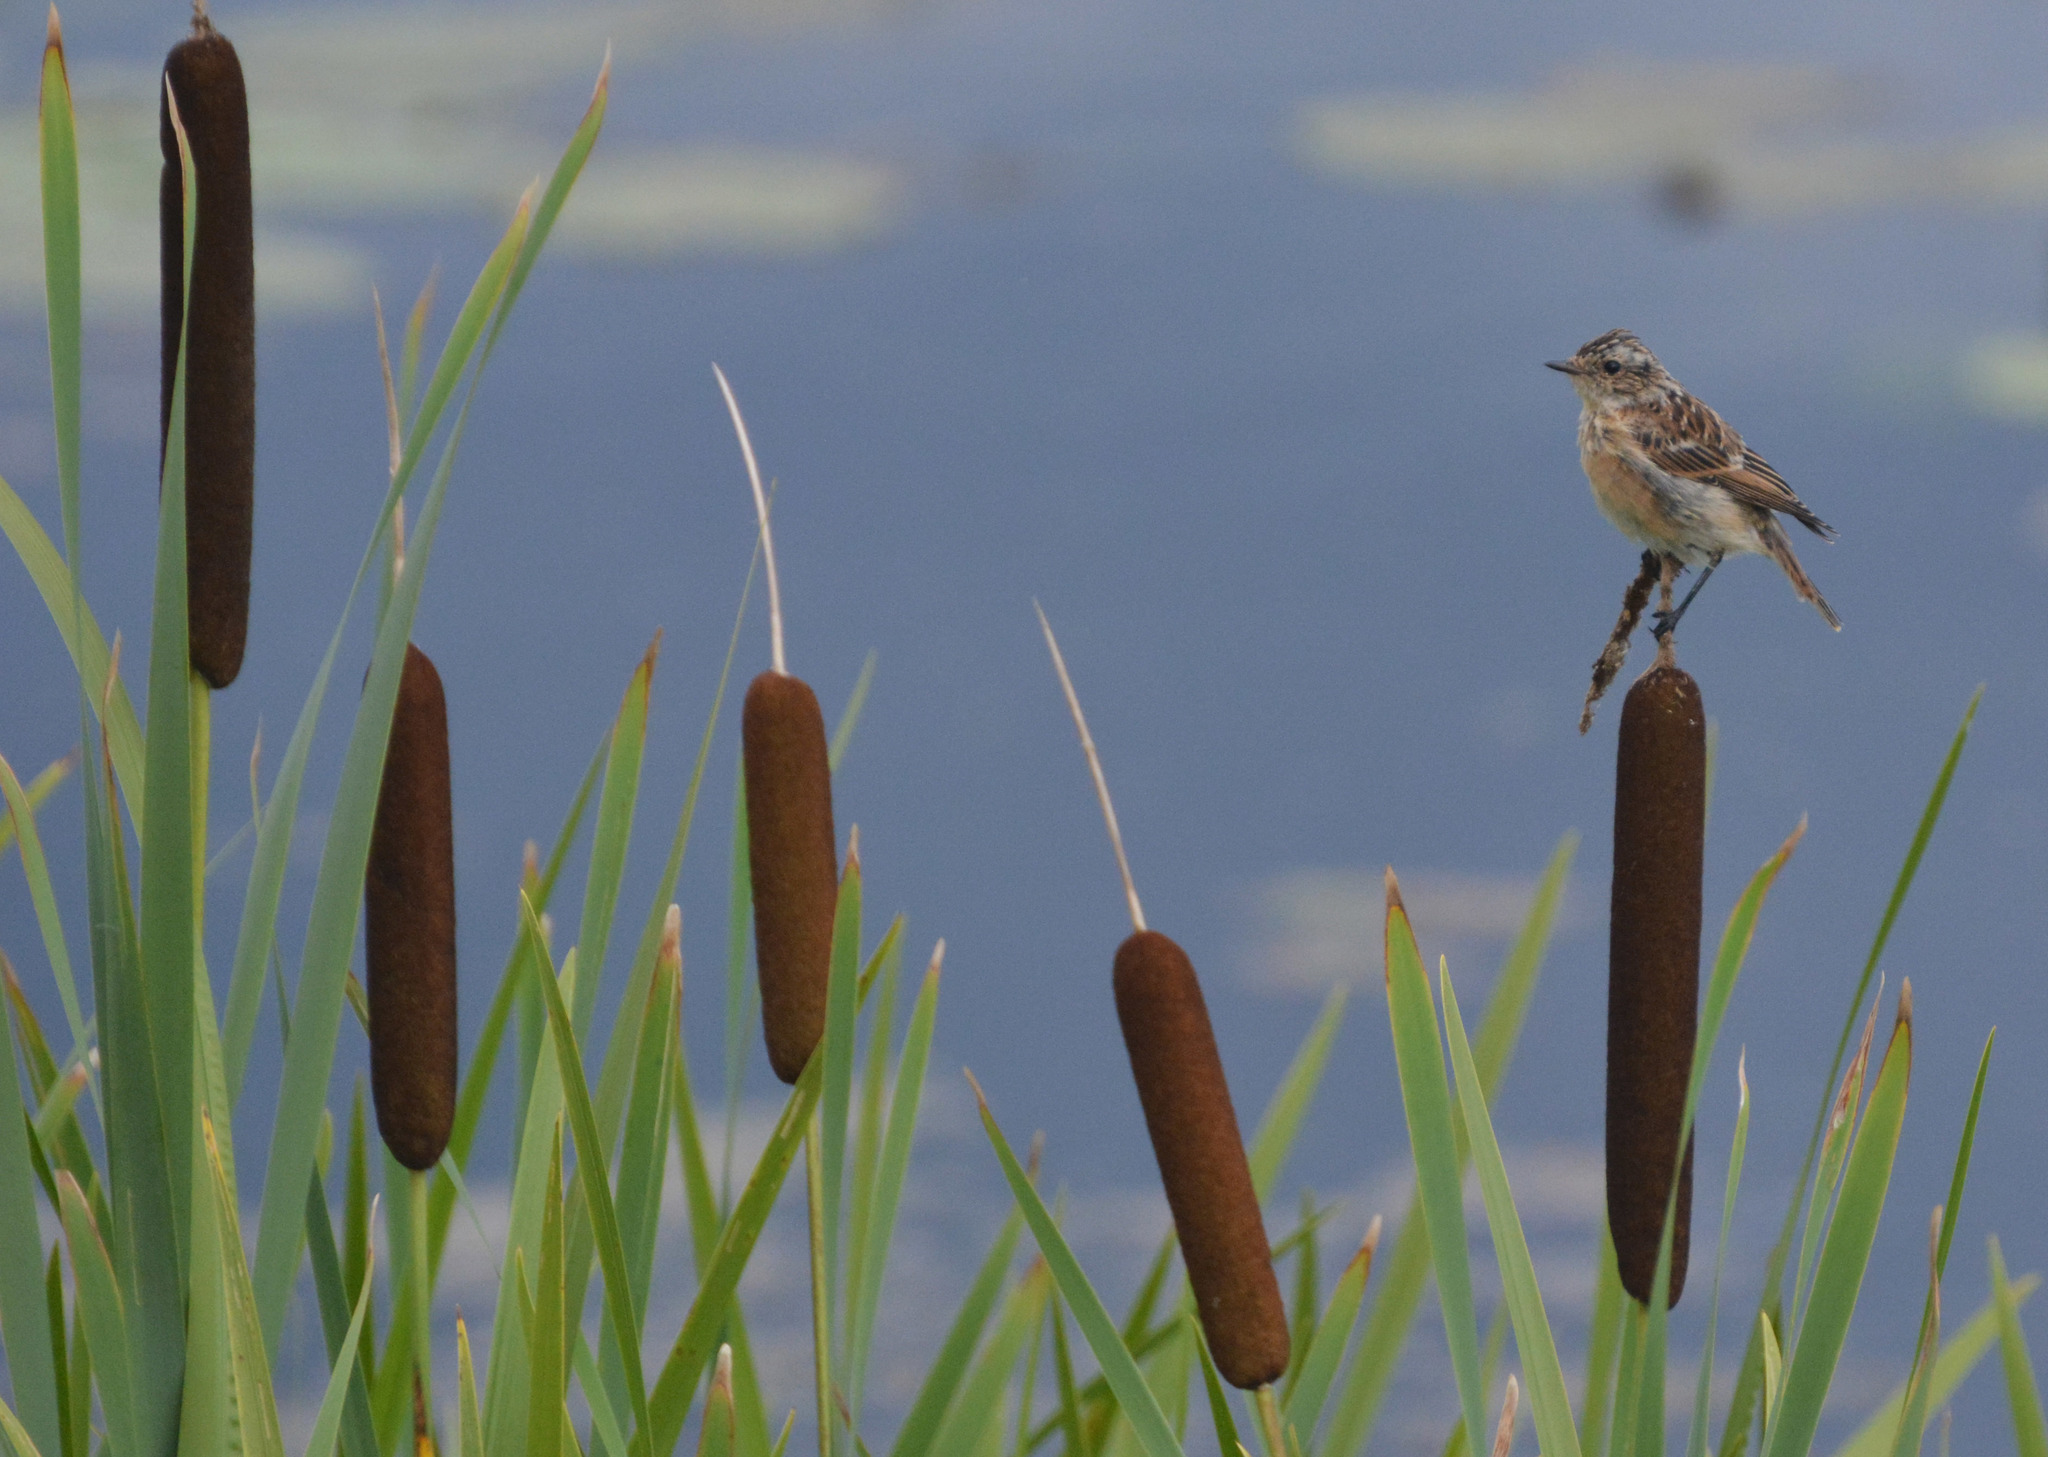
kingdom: Animalia
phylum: Chordata
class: Aves
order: Passeriformes
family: Muscicapidae
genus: Saxicola
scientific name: Saxicola rubetra
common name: Whinchat
